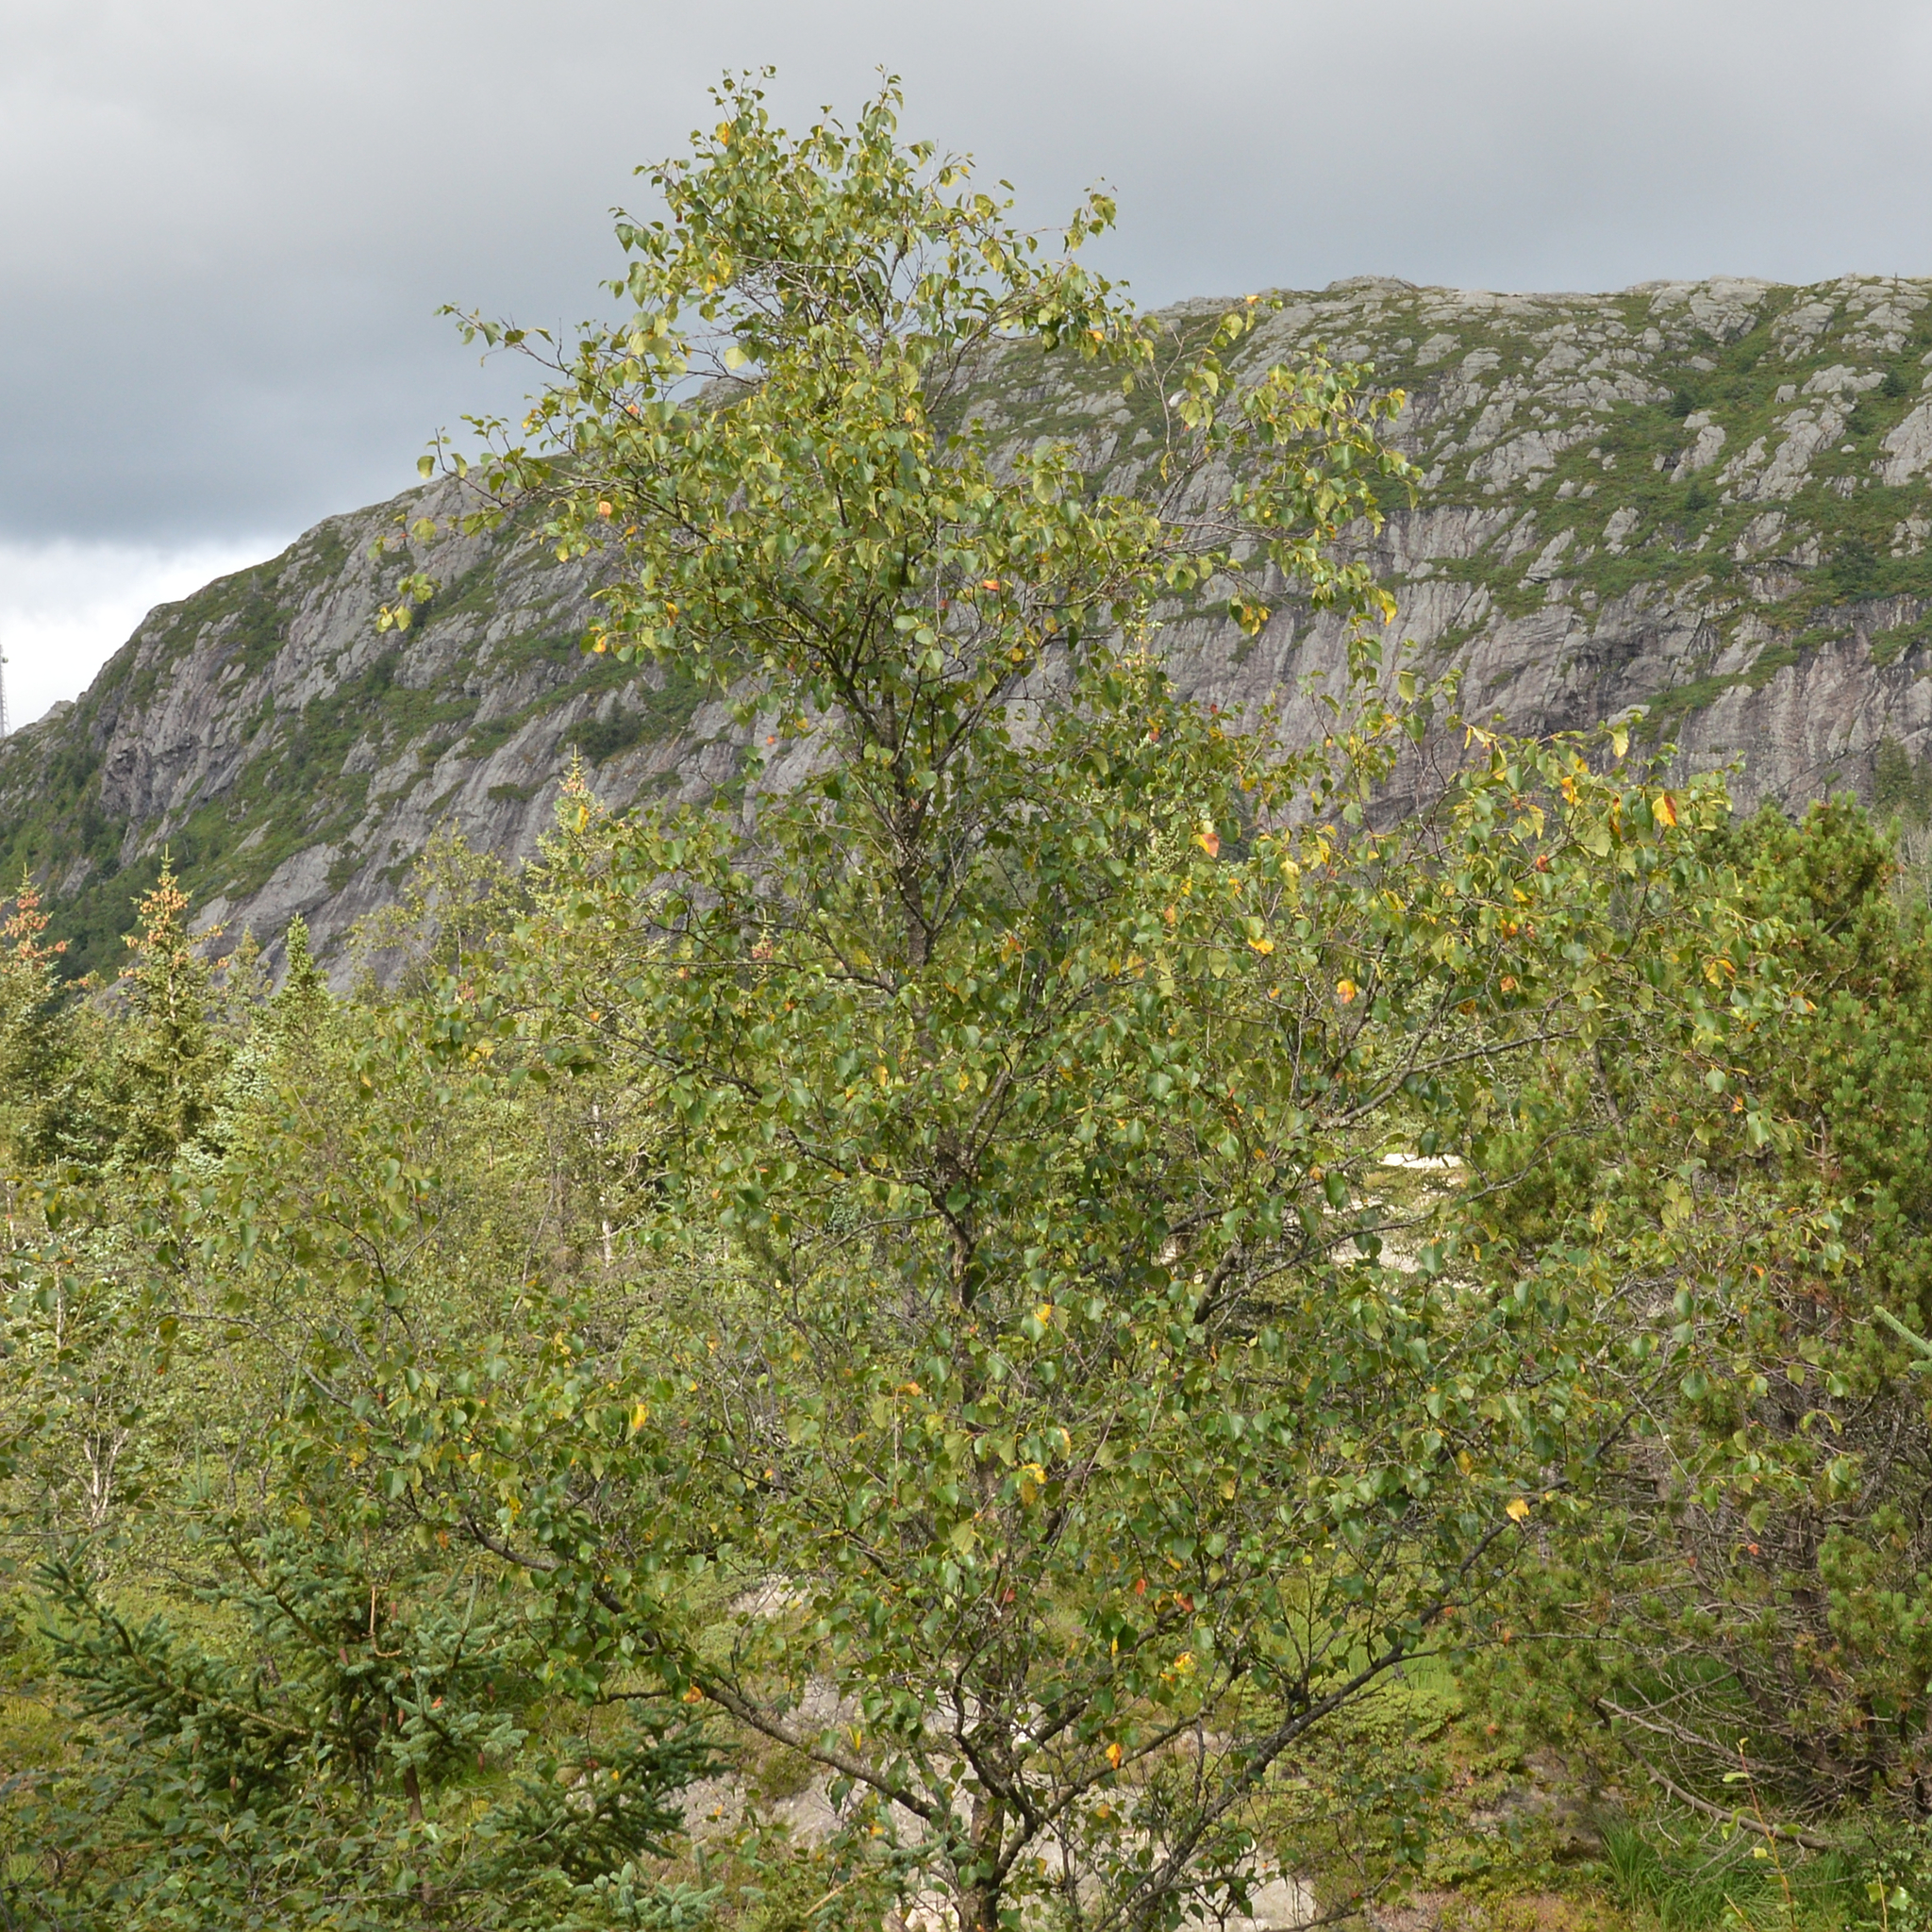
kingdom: Plantae
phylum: Tracheophyta
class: Magnoliopsida
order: Fagales
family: Betulaceae
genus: Betula
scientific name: Betula pubescens
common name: Downy birch
